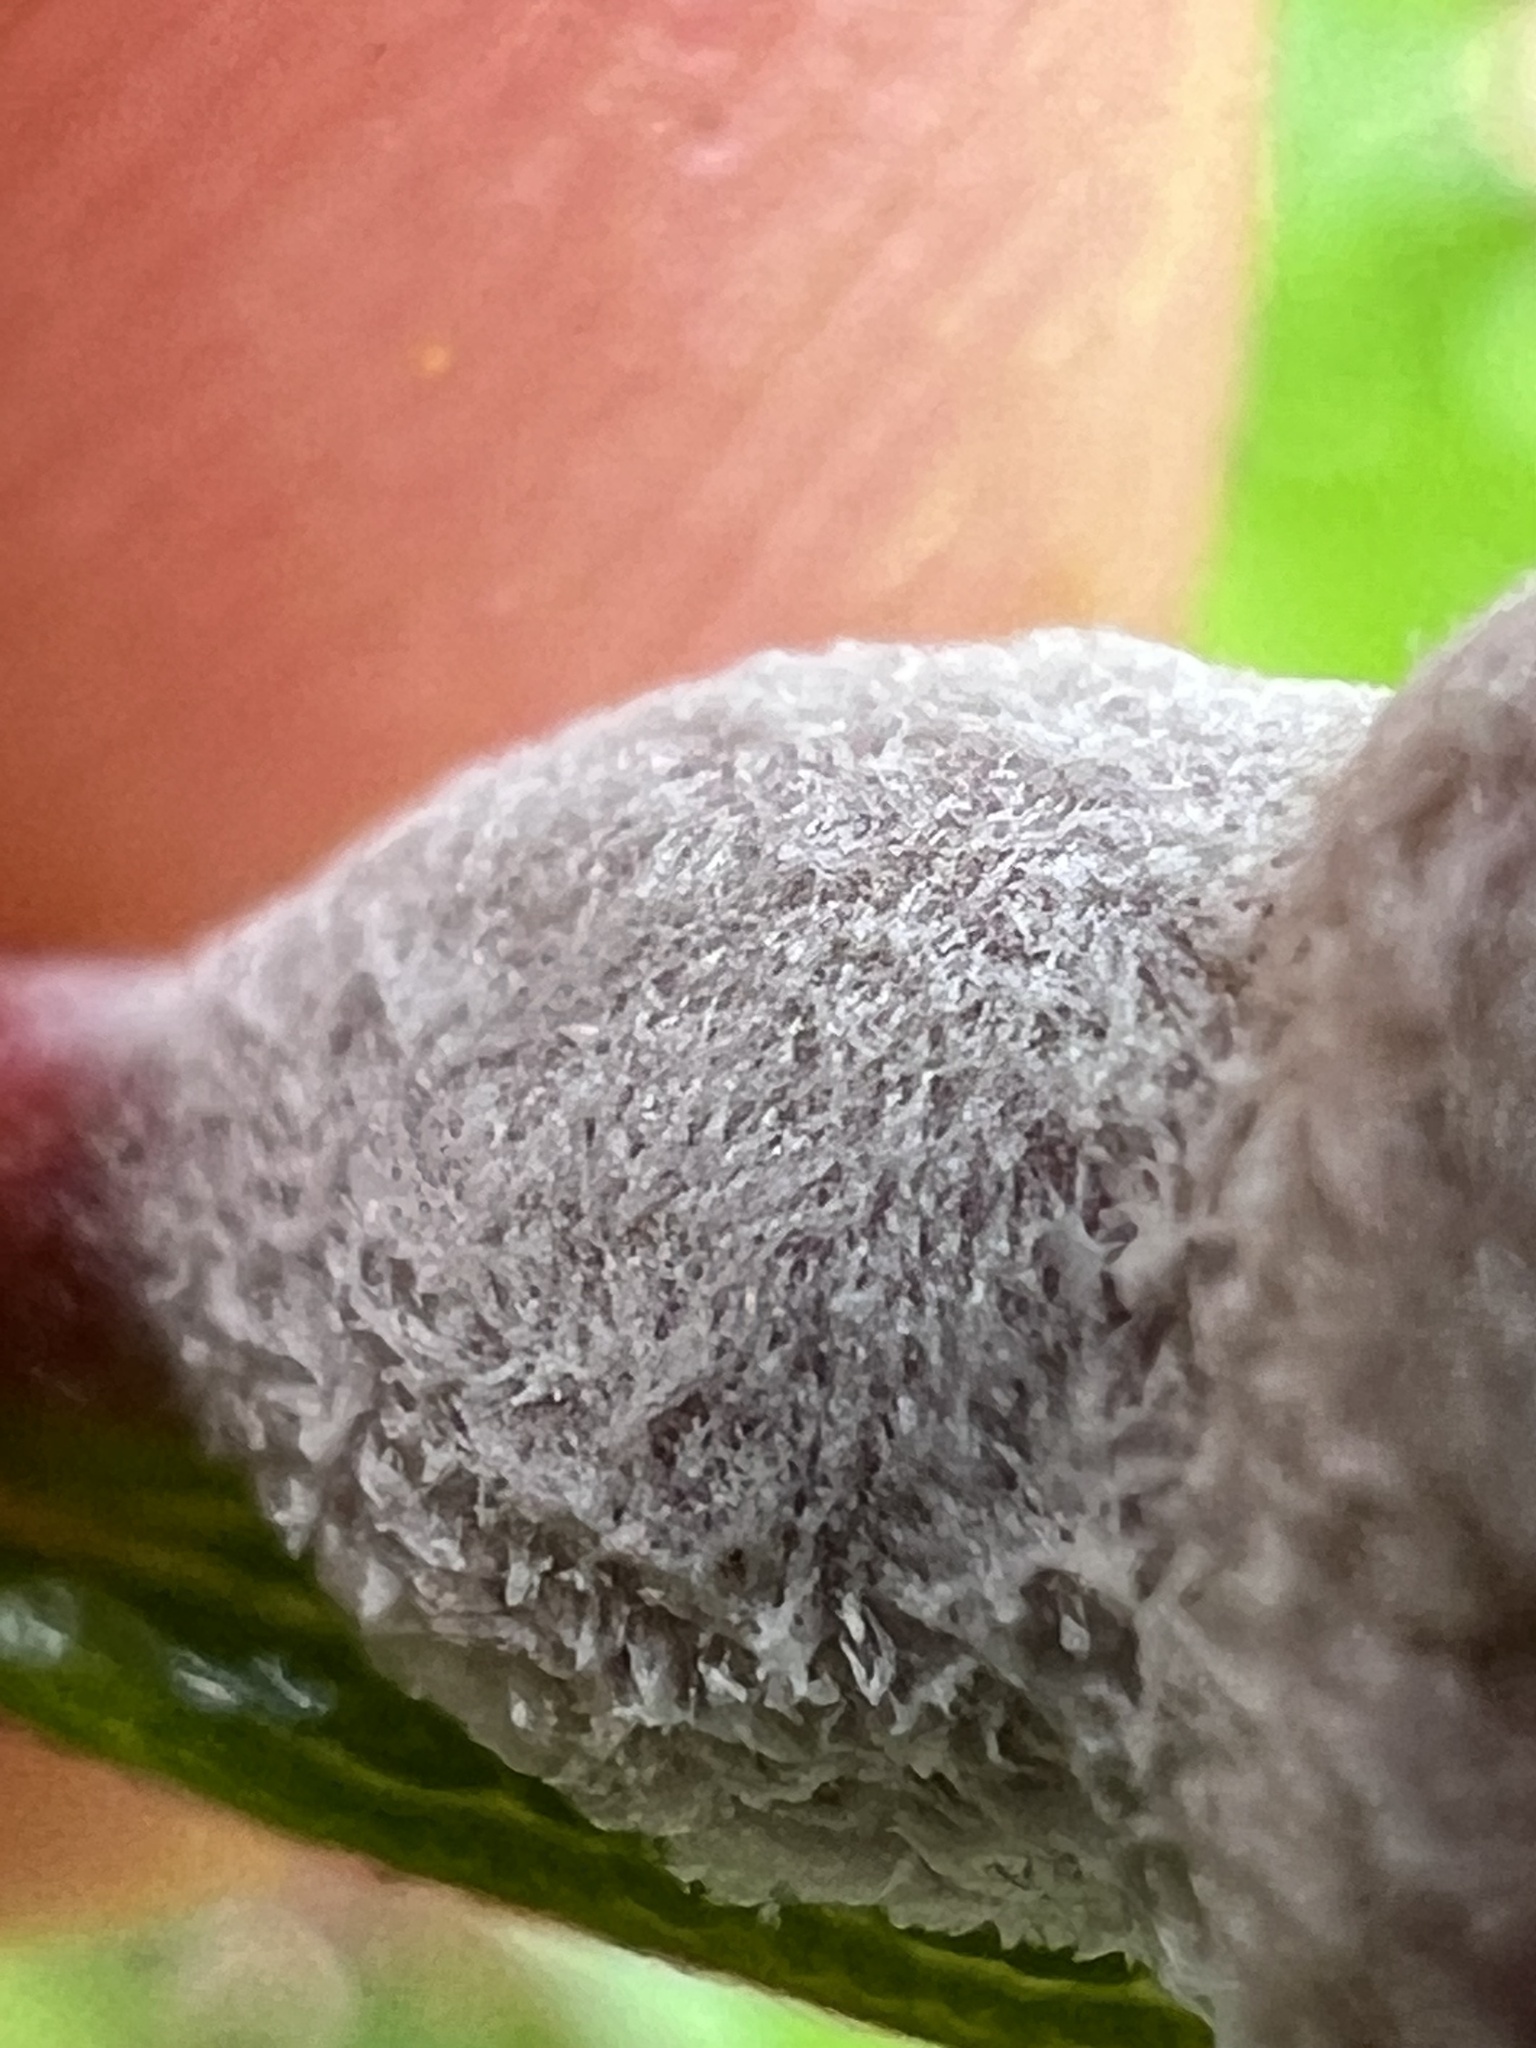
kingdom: Fungi
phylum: Ascomycota
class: Leotiomycetes
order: Helotiales
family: Erysiphaceae
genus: Podosphaera
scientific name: Podosphaera pannosa
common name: Rose mildew
